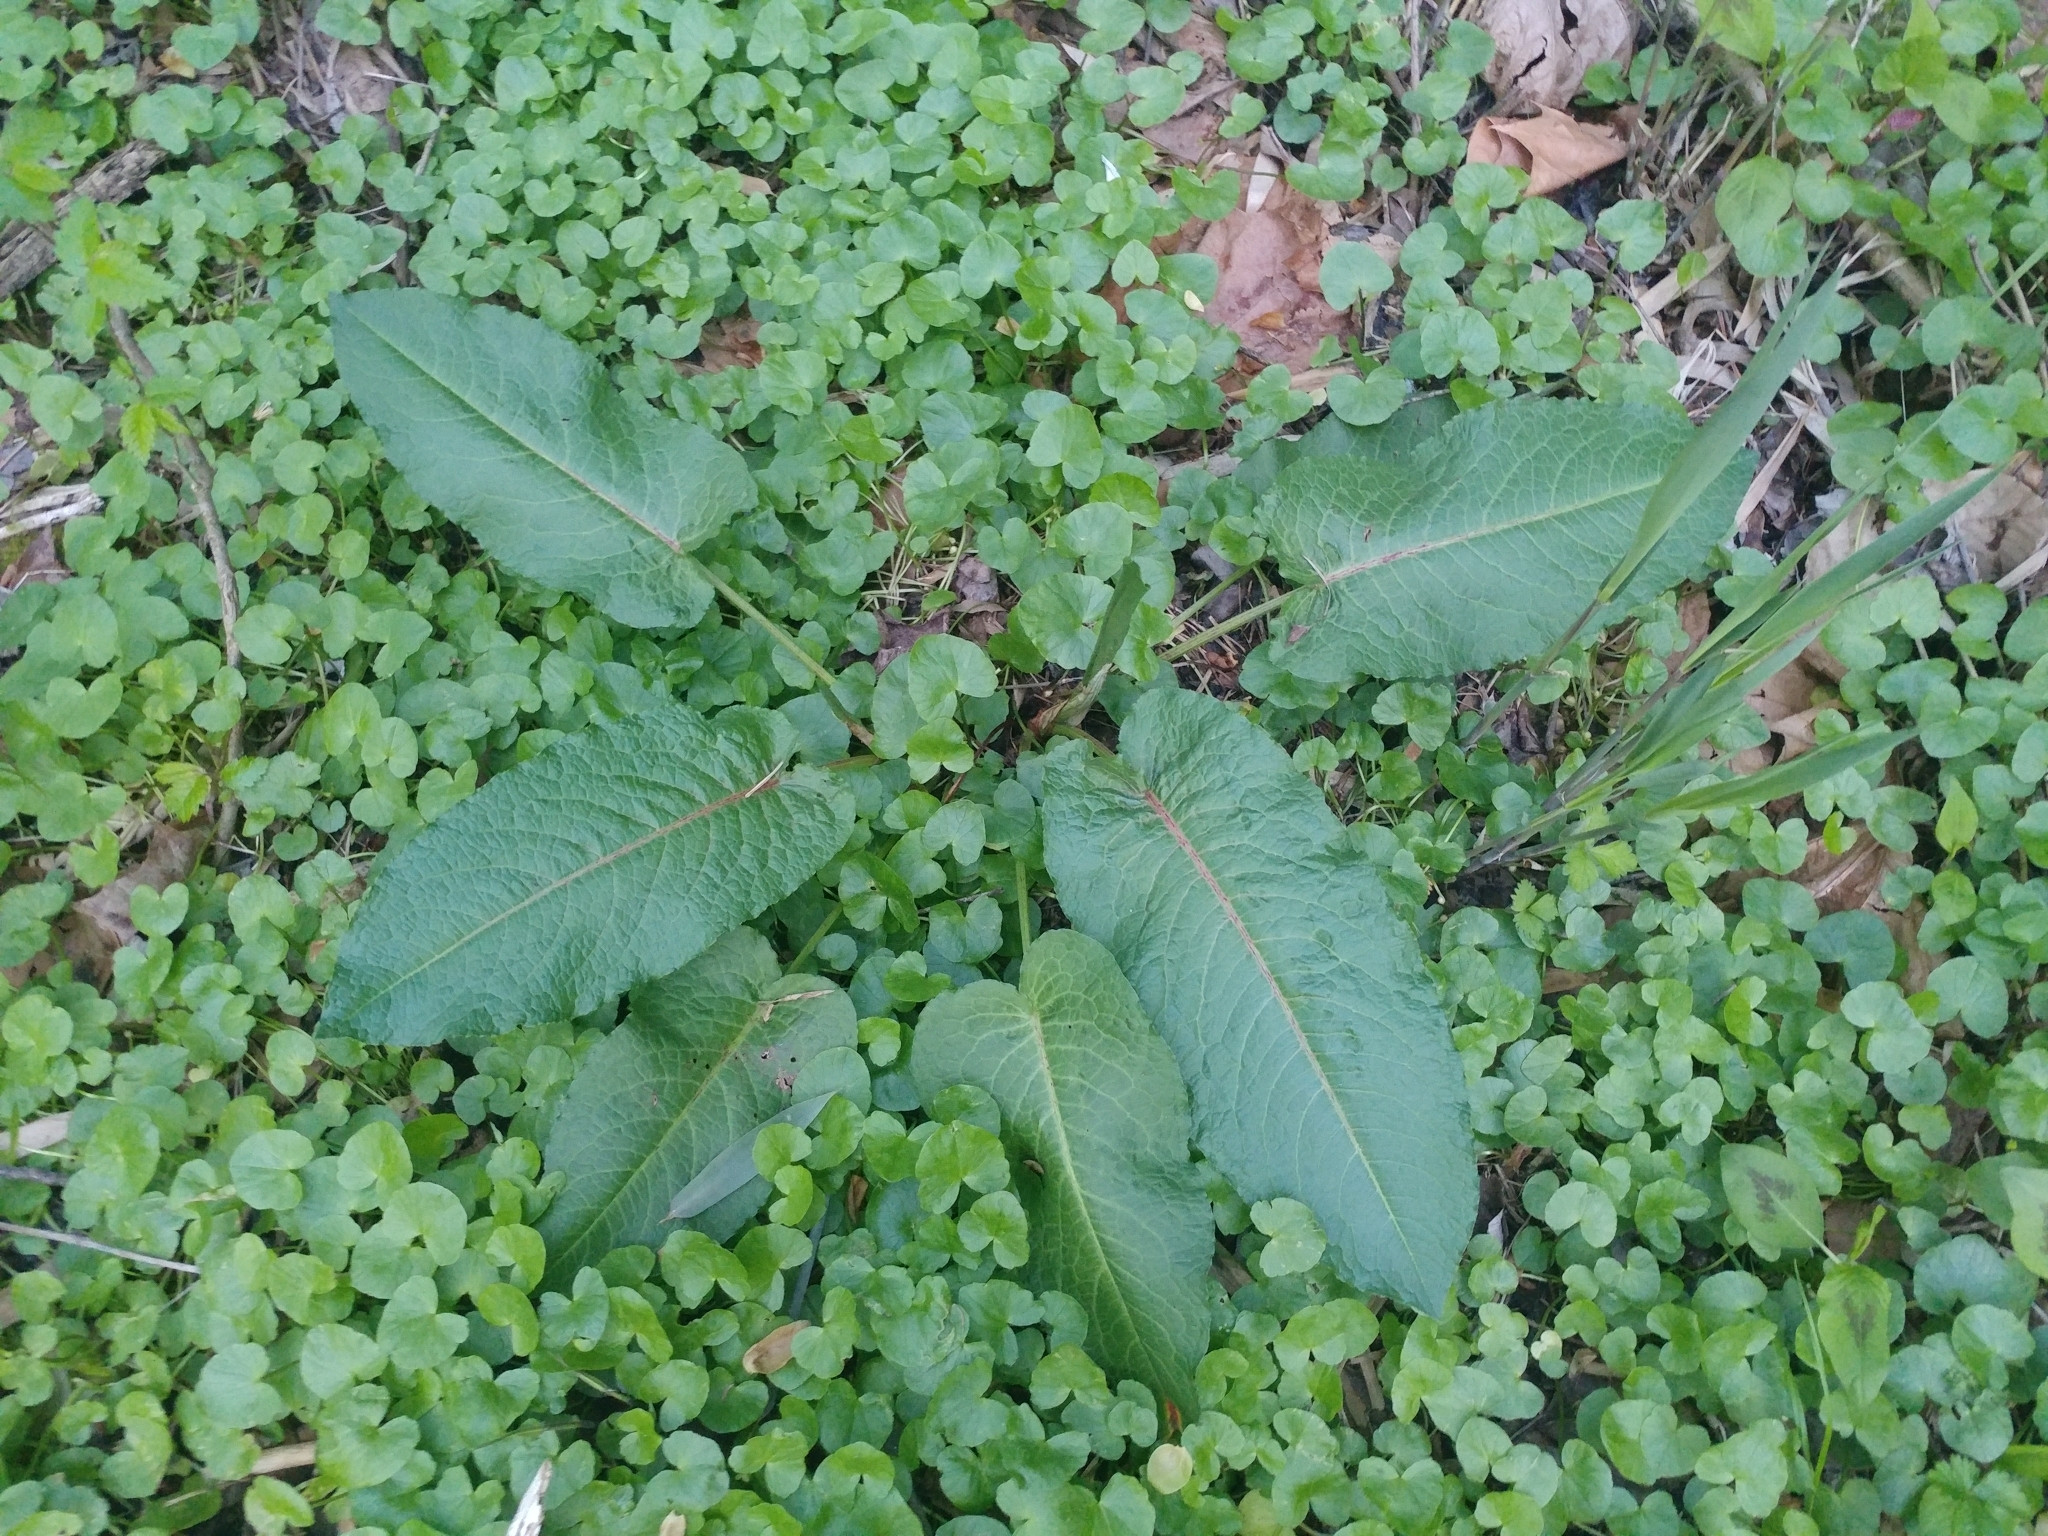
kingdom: Plantae
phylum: Tracheophyta
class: Magnoliopsida
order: Caryophyllales
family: Polygonaceae
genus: Rumex
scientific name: Rumex obtusifolius
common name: Bitter dock
